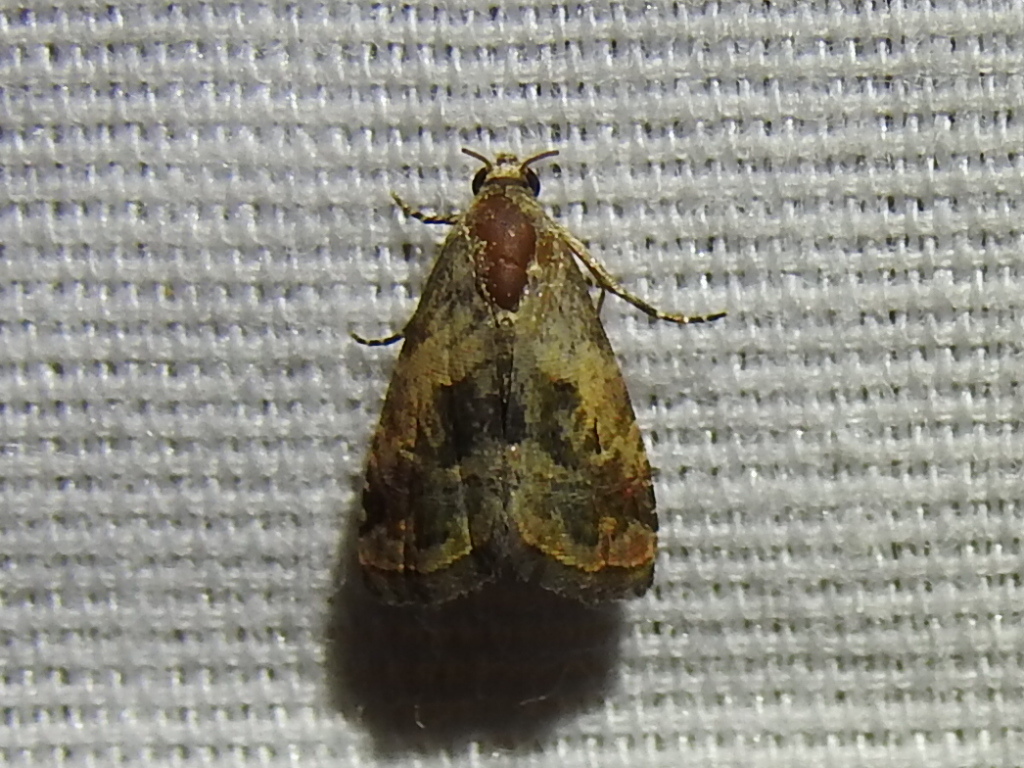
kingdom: Animalia
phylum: Arthropoda
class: Insecta
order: Lepidoptera
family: Noctuidae
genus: Tripudia
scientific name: Tripudia quadrifera
